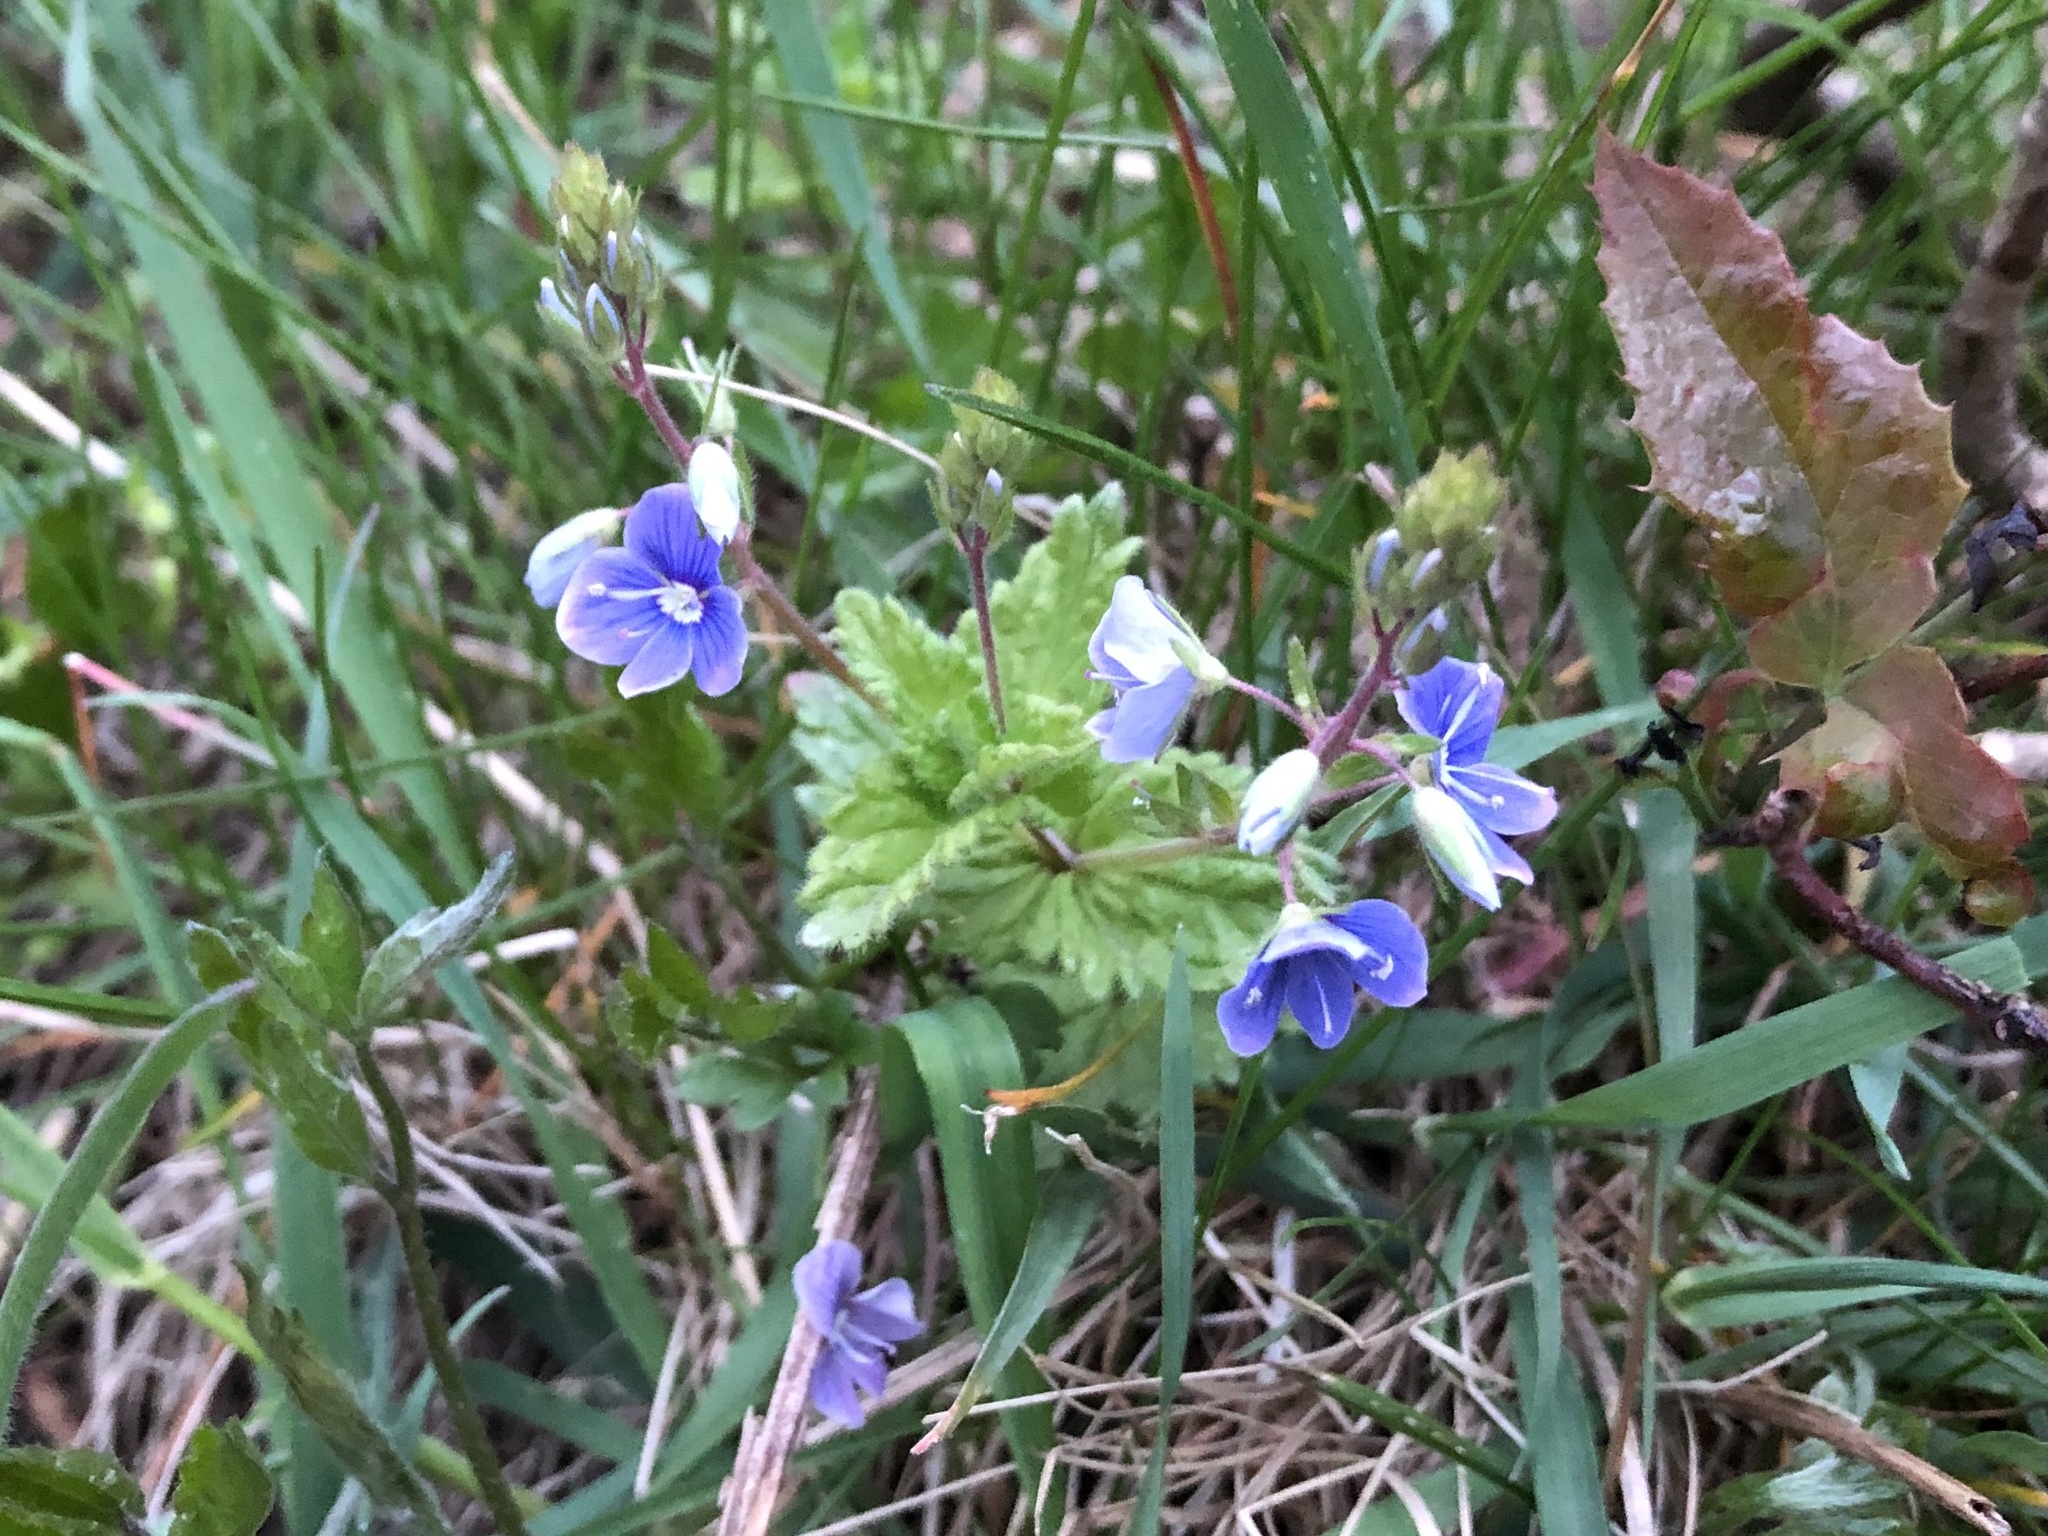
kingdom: Plantae
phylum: Tracheophyta
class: Magnoliopsida
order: Lamiales
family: Plantaginaceae
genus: Veronica
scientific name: Veronica chamaedrys
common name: Germander speedwell
